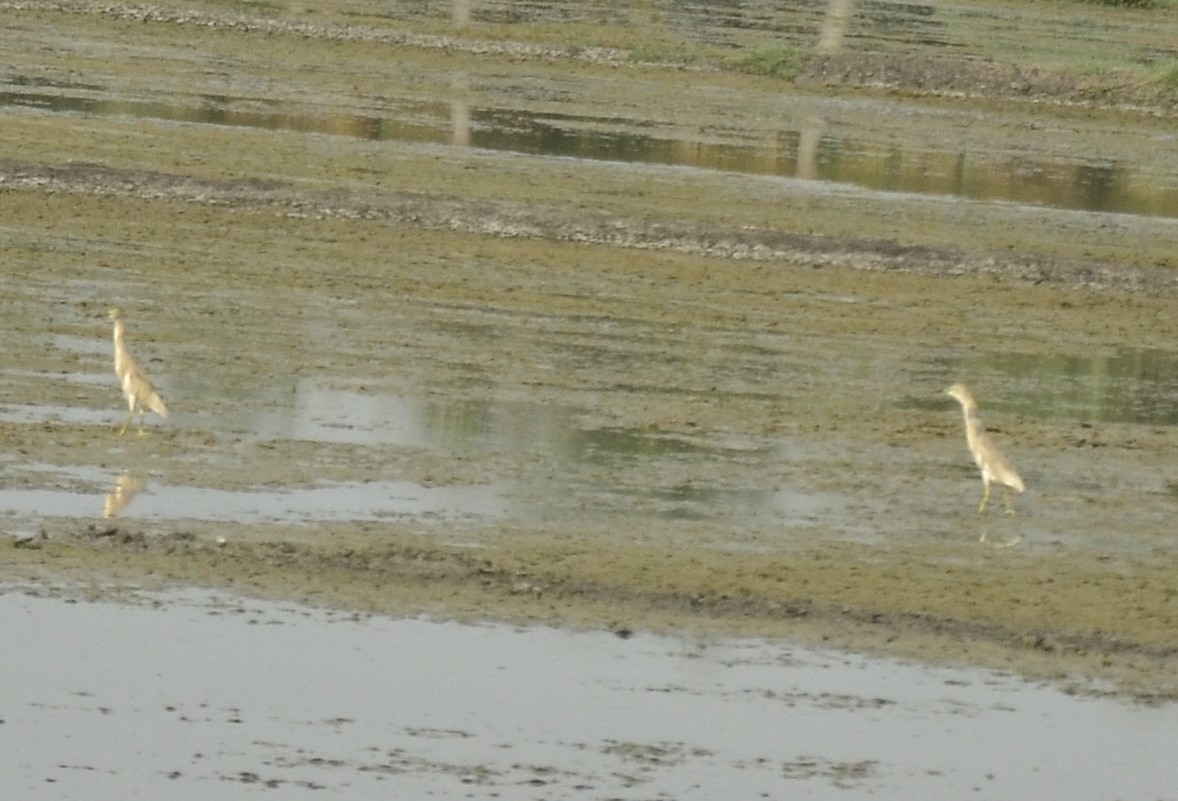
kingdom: Animalia
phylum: Chordata
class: Aves
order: Pelecaniformes
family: Ardeidae
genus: Ardeola
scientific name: Ardeola grayii
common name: Indian pond heron
